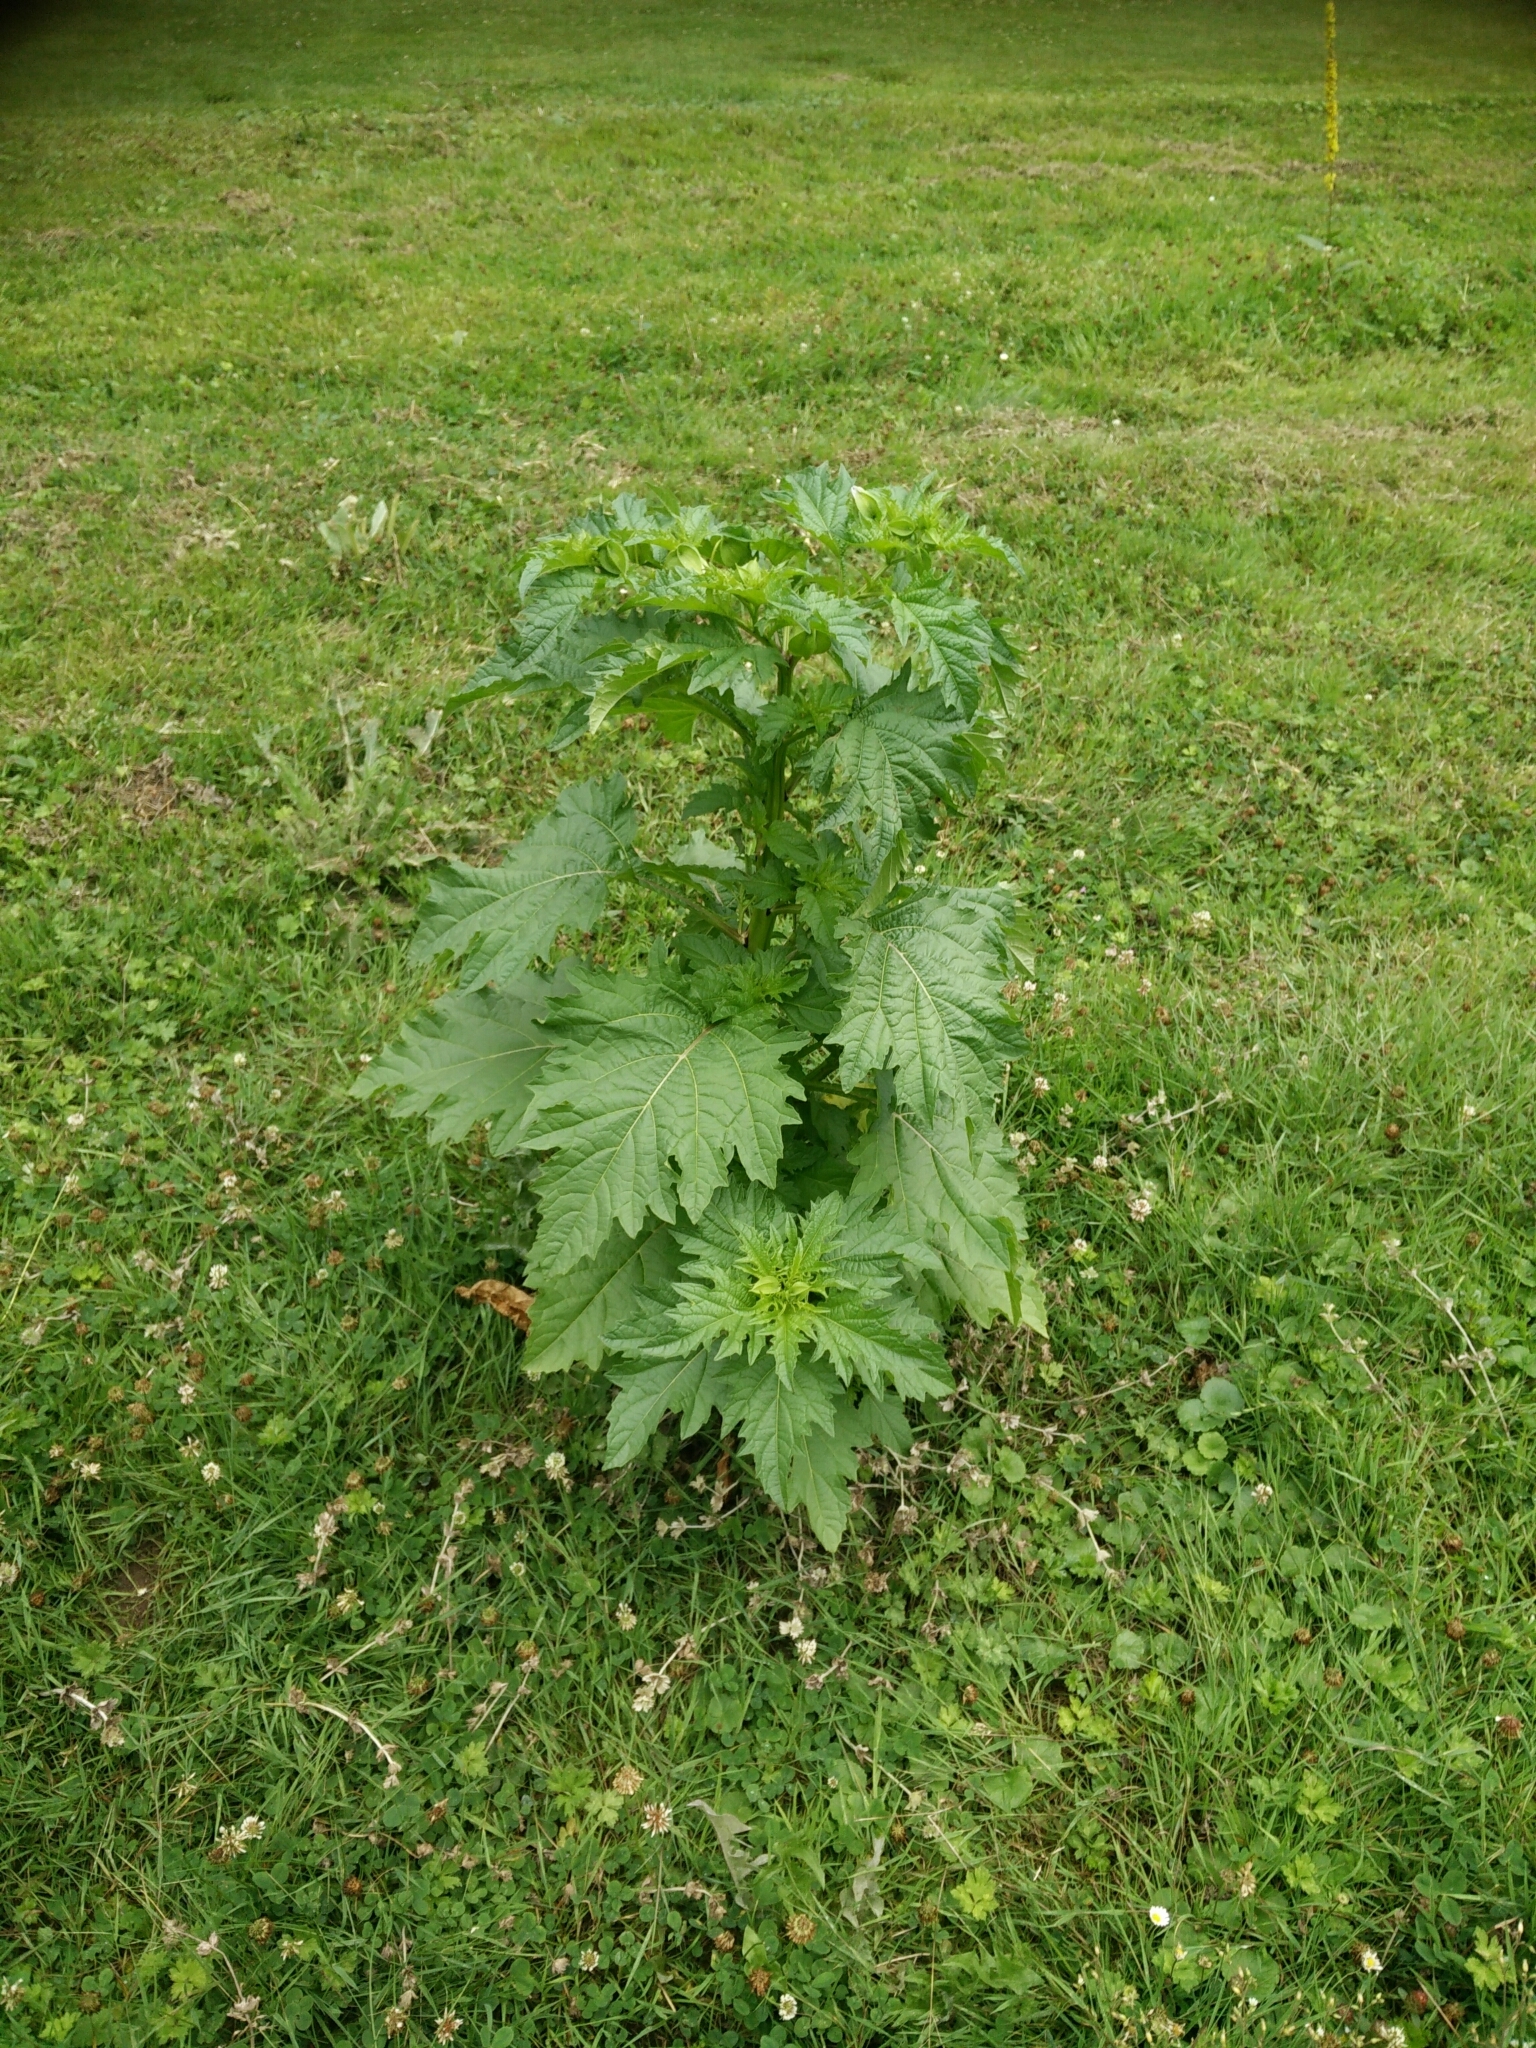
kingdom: Plantae
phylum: Tracheophyta
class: Magnoliopsida
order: Solanales
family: Solanaceae
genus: Nicandra
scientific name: Nicandra physalodes
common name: Apple-of-peru
